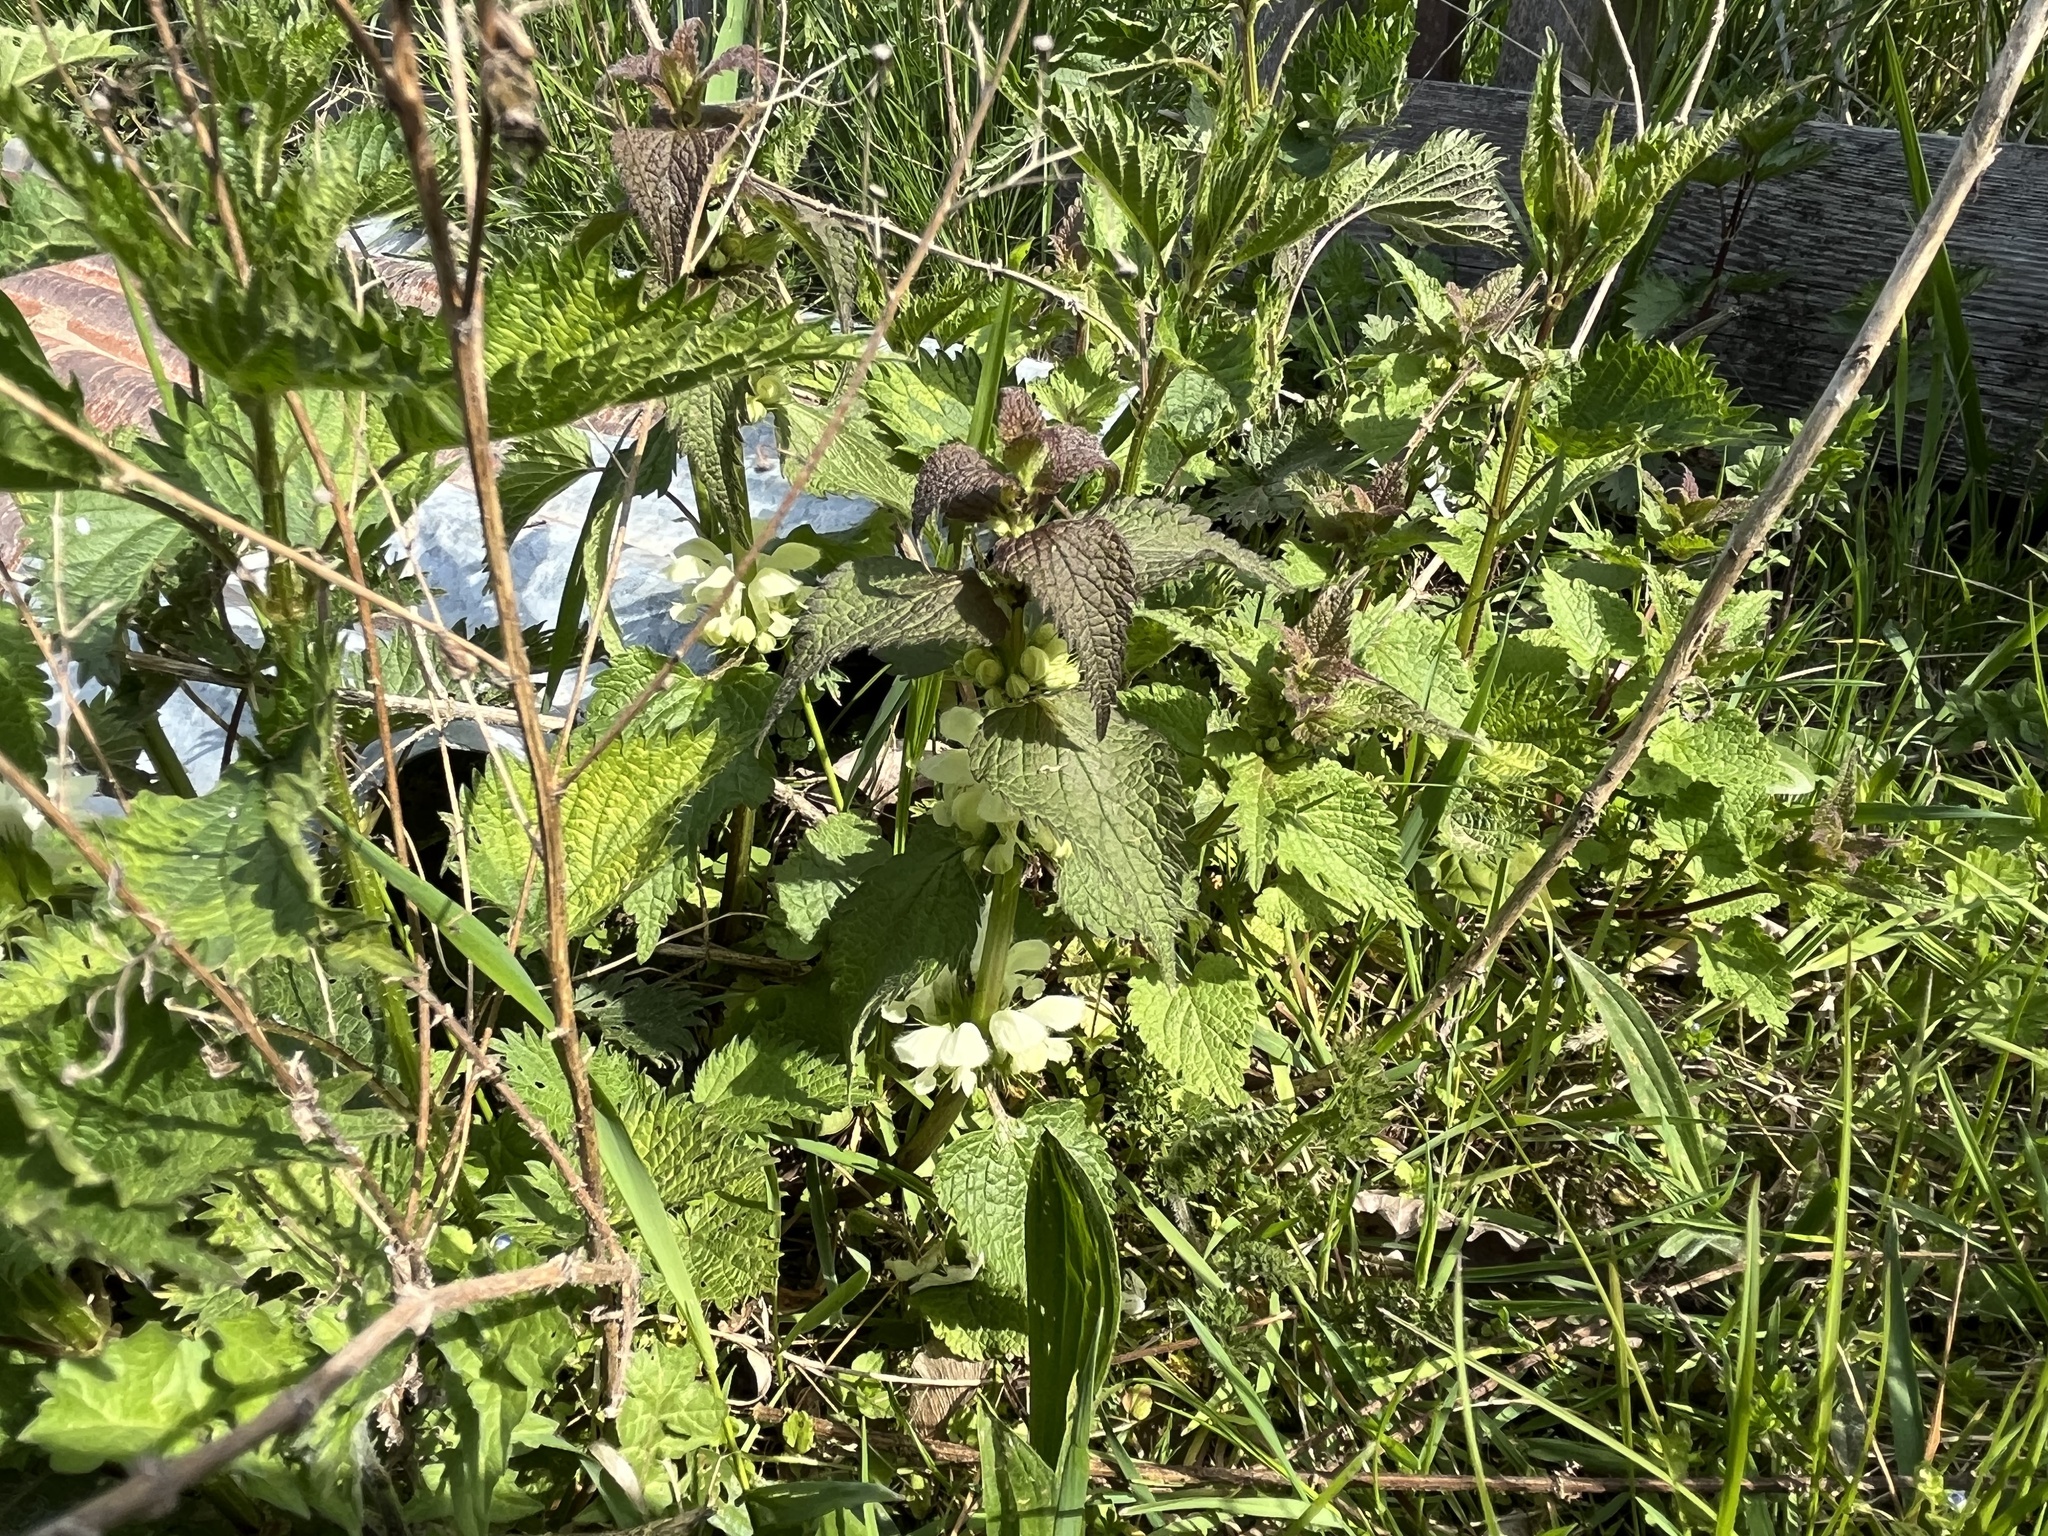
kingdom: Plantae
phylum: Tracheophyta
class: Magnoliopsida
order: Lamiales
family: Lamiaceae
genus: Lamium
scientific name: Lamium album
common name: White dead-nettle
